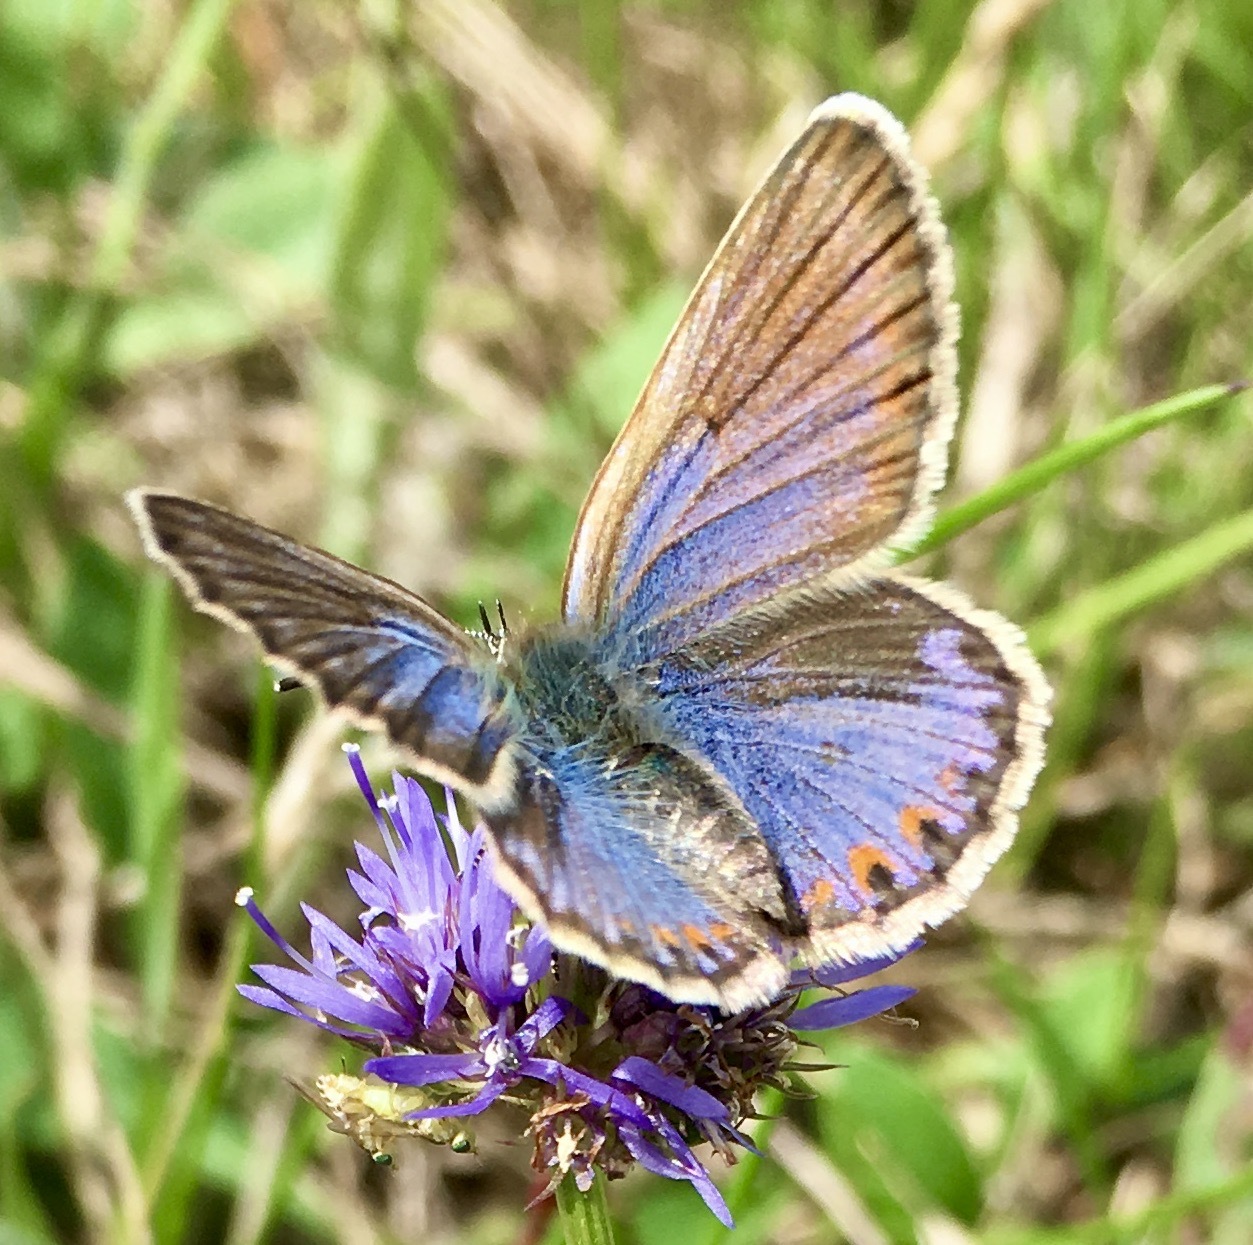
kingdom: Animalia
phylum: Arthropoda
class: Insecta
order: Lepidoptera
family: Lycaenidae
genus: Lycaeides
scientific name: Lycaeides idas
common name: Northern blue
